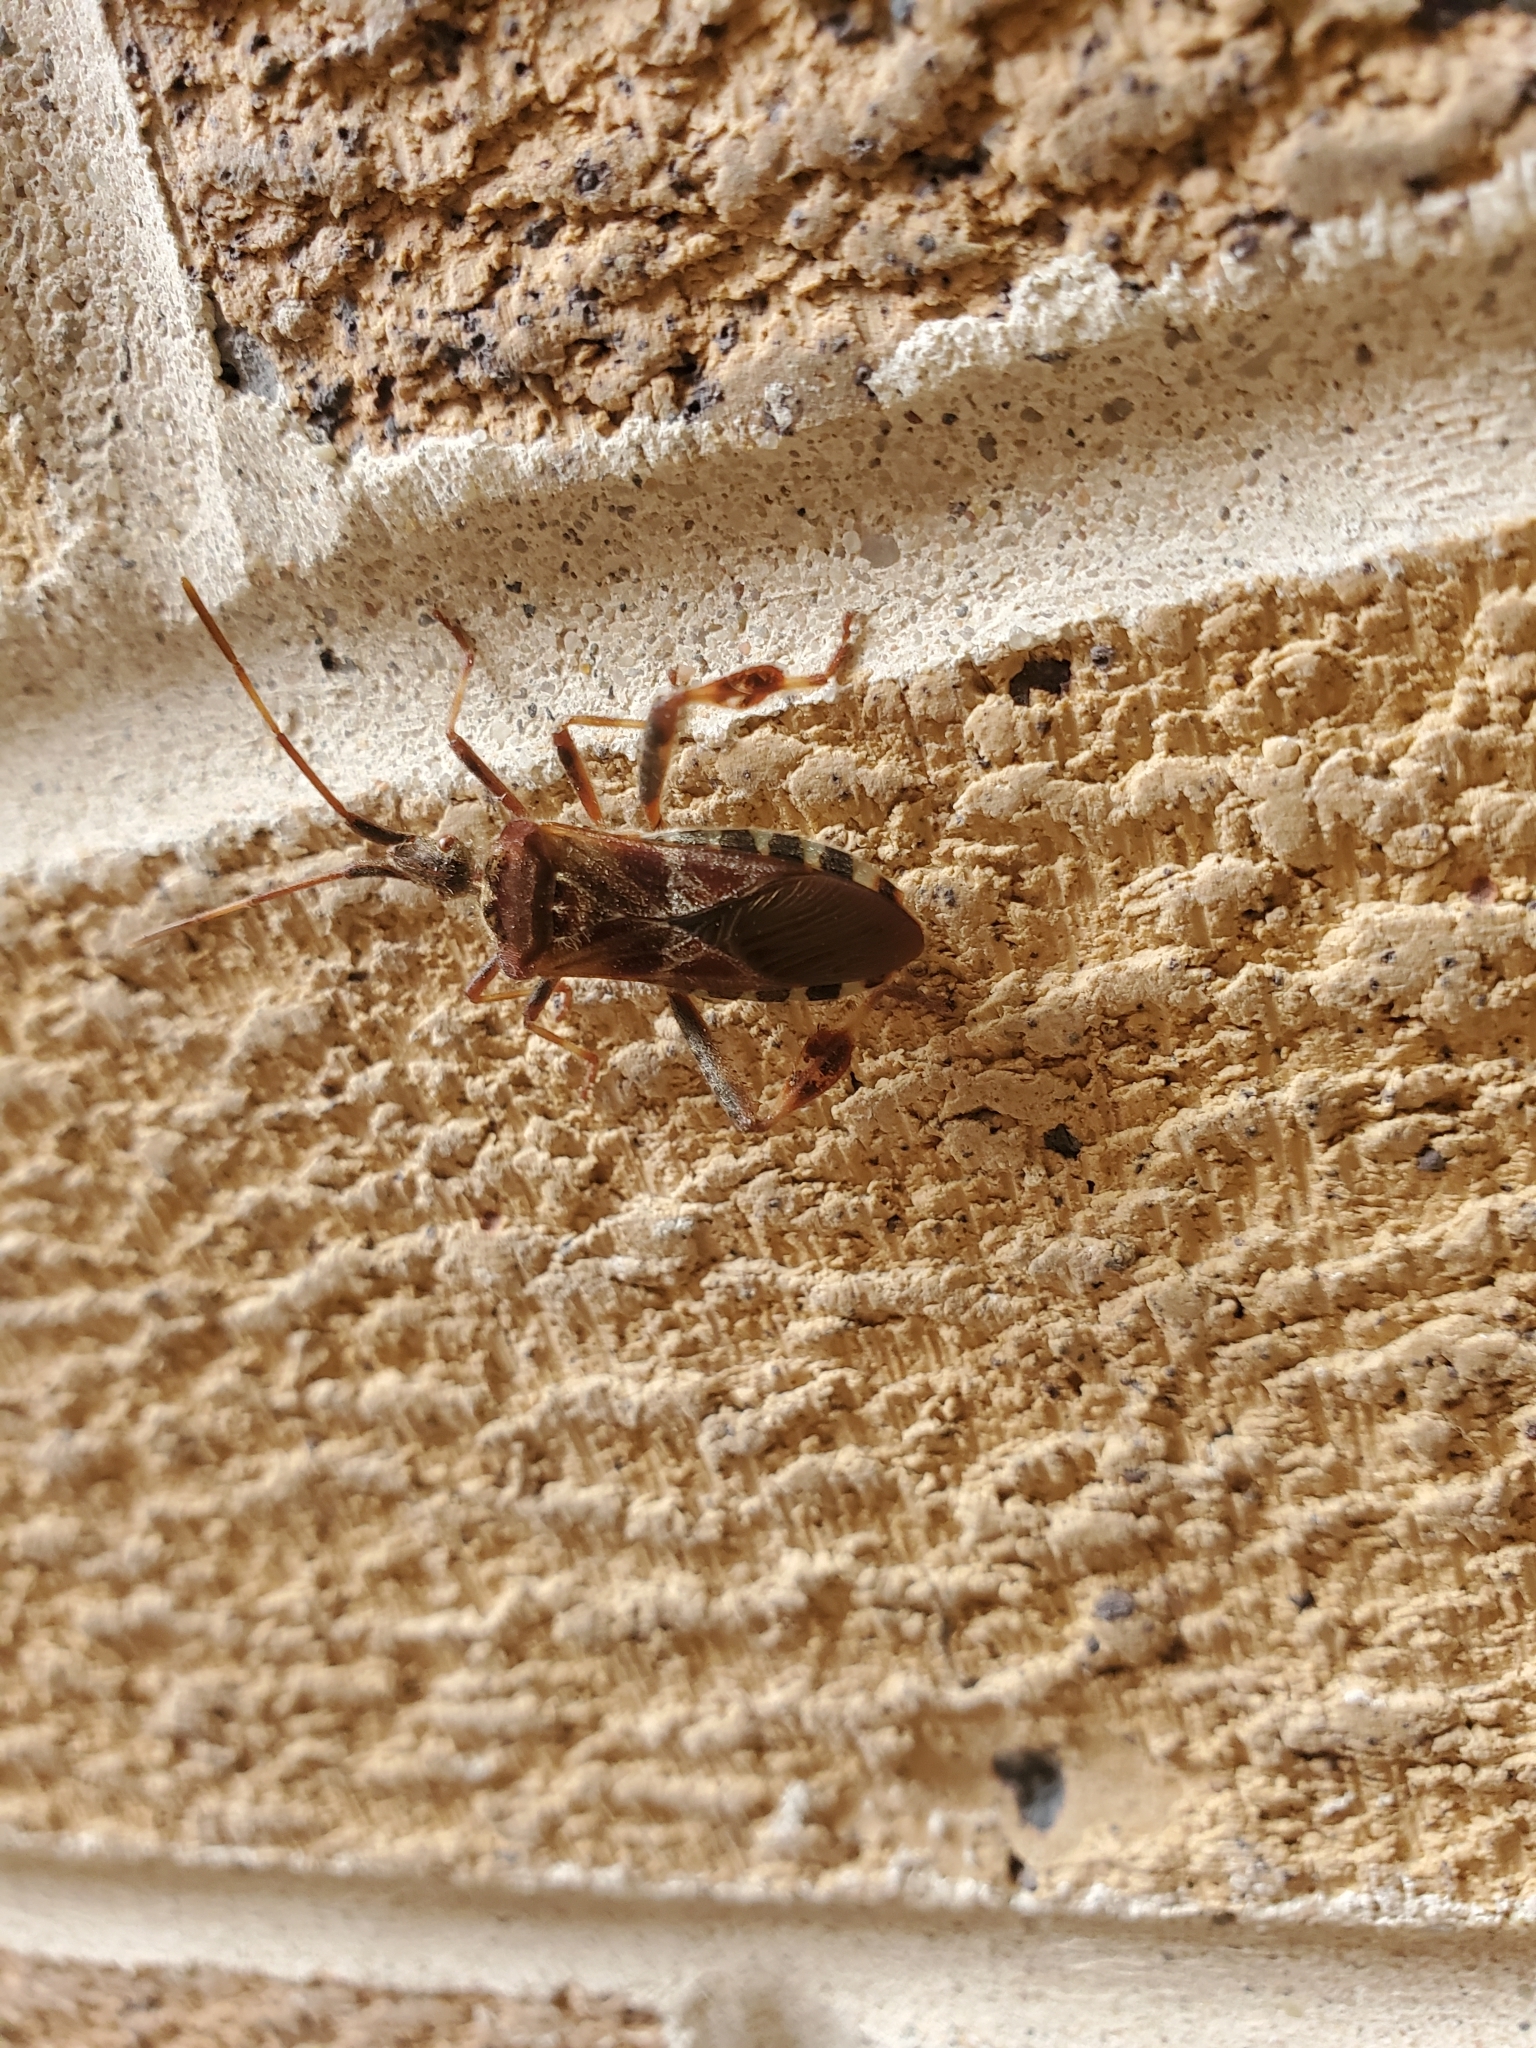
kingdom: Animalia
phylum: Arthropoda
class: Insecta
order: Hemiptera
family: Coreidae
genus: Leptoglossus
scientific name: Leptoglossus occidentalis
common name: Western conifer-seed bug
